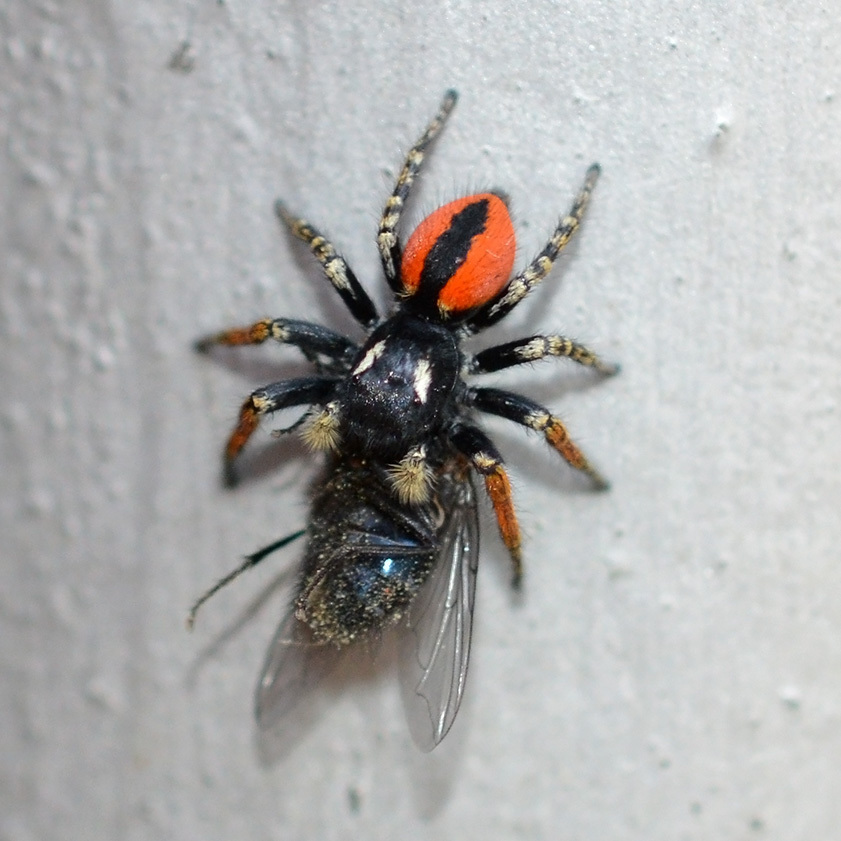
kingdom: Animalia
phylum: Arthropoda
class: Arachnida
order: Araneae
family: Salticidae
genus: Philaeus
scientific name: Philaeus chrysops
